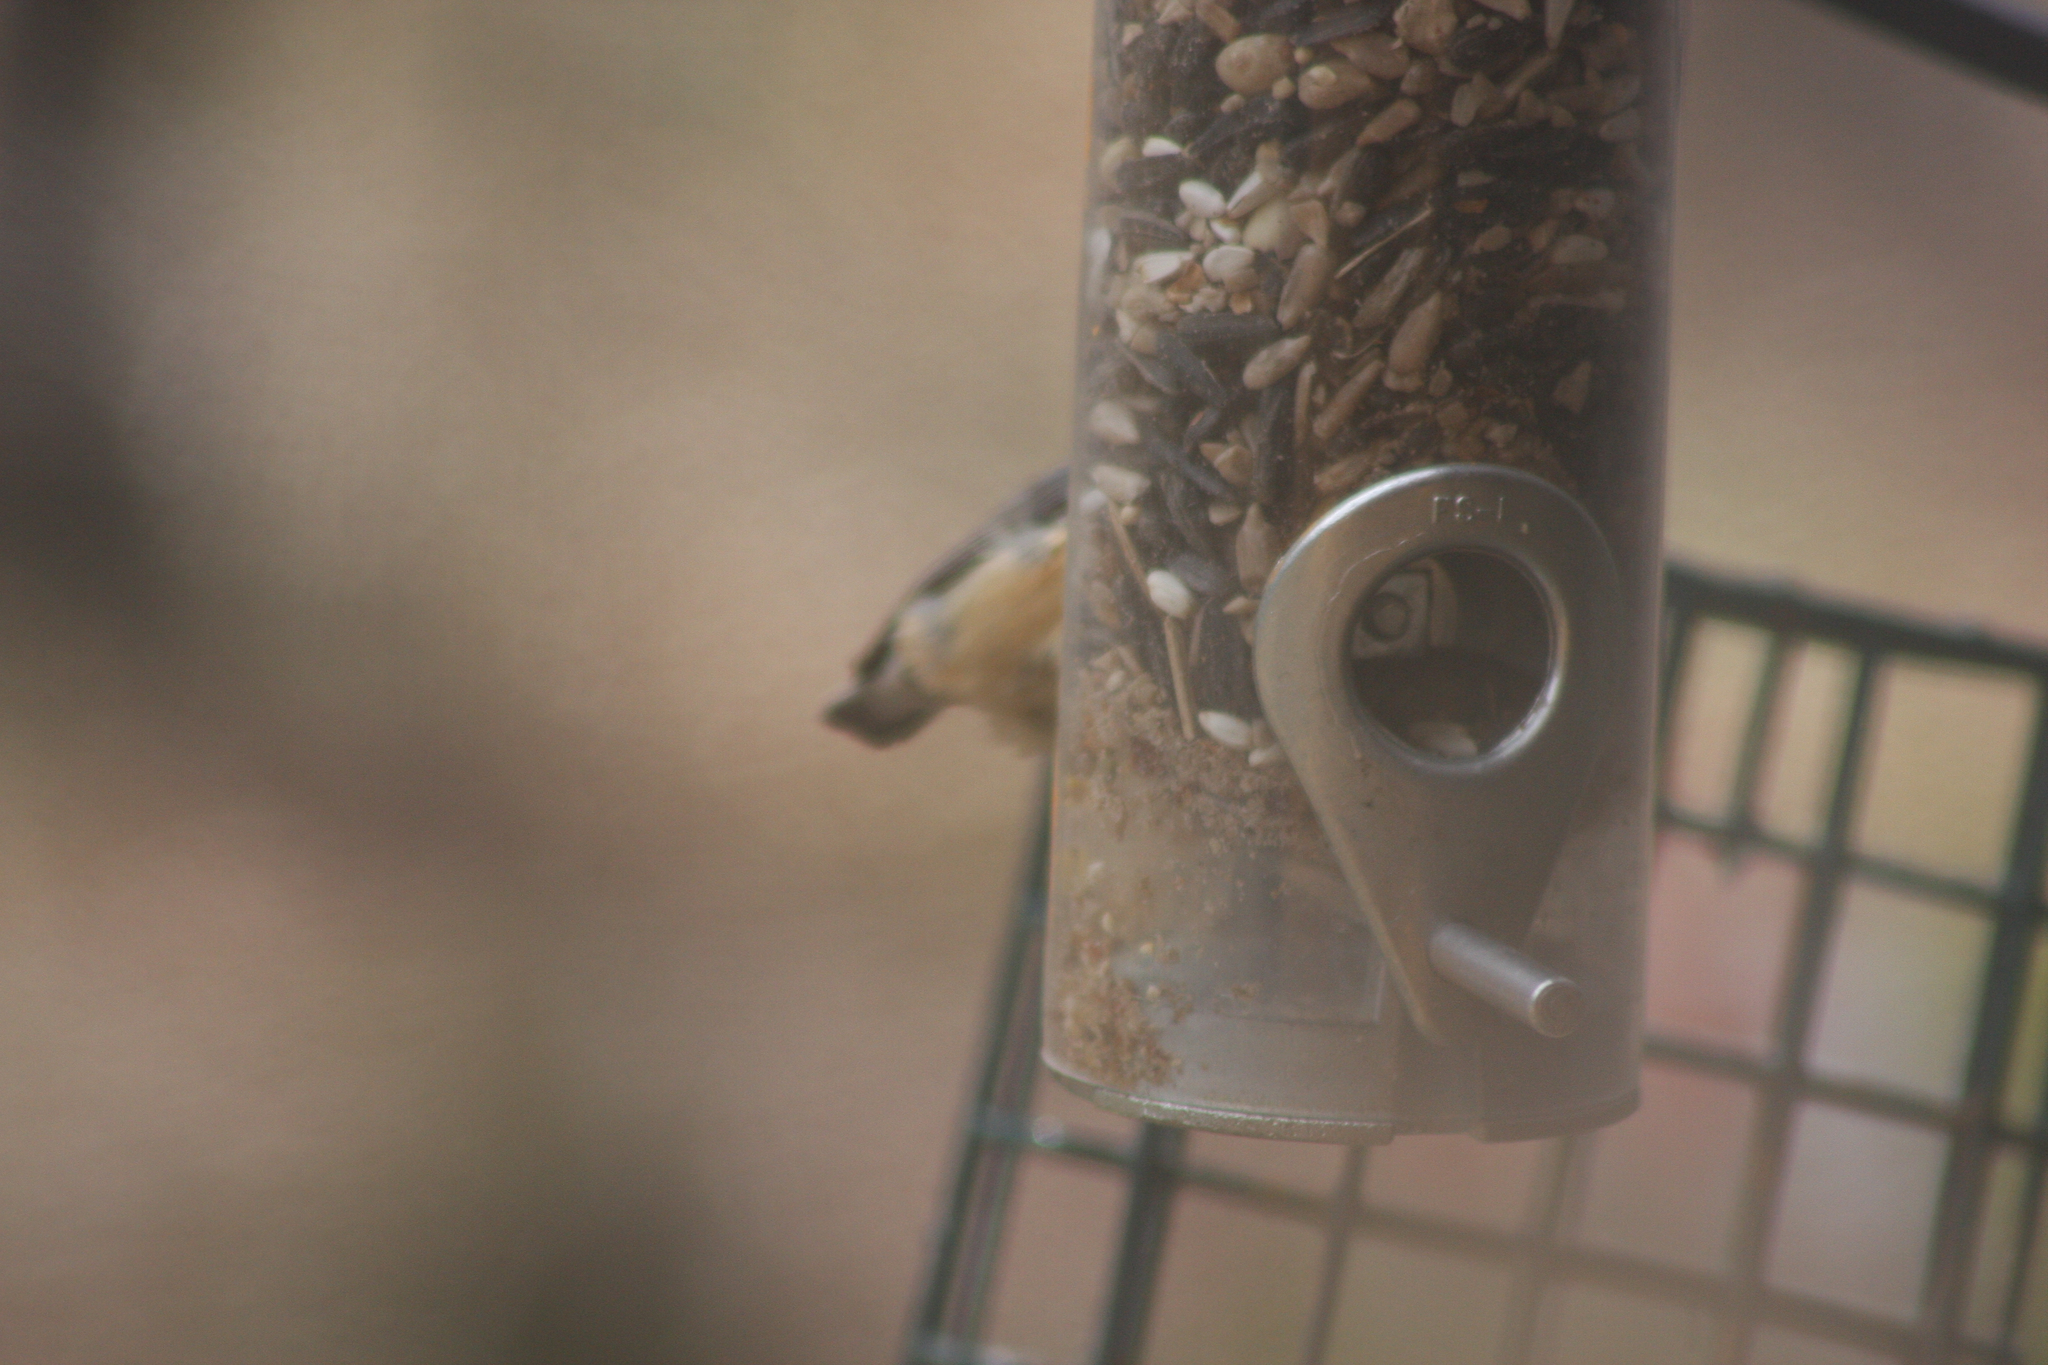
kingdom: Animalia
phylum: Chordata
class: Aves
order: Passeriformes
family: Sittidae
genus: Sitta
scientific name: Sitta canadensis
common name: Red-breasted nuthatch
